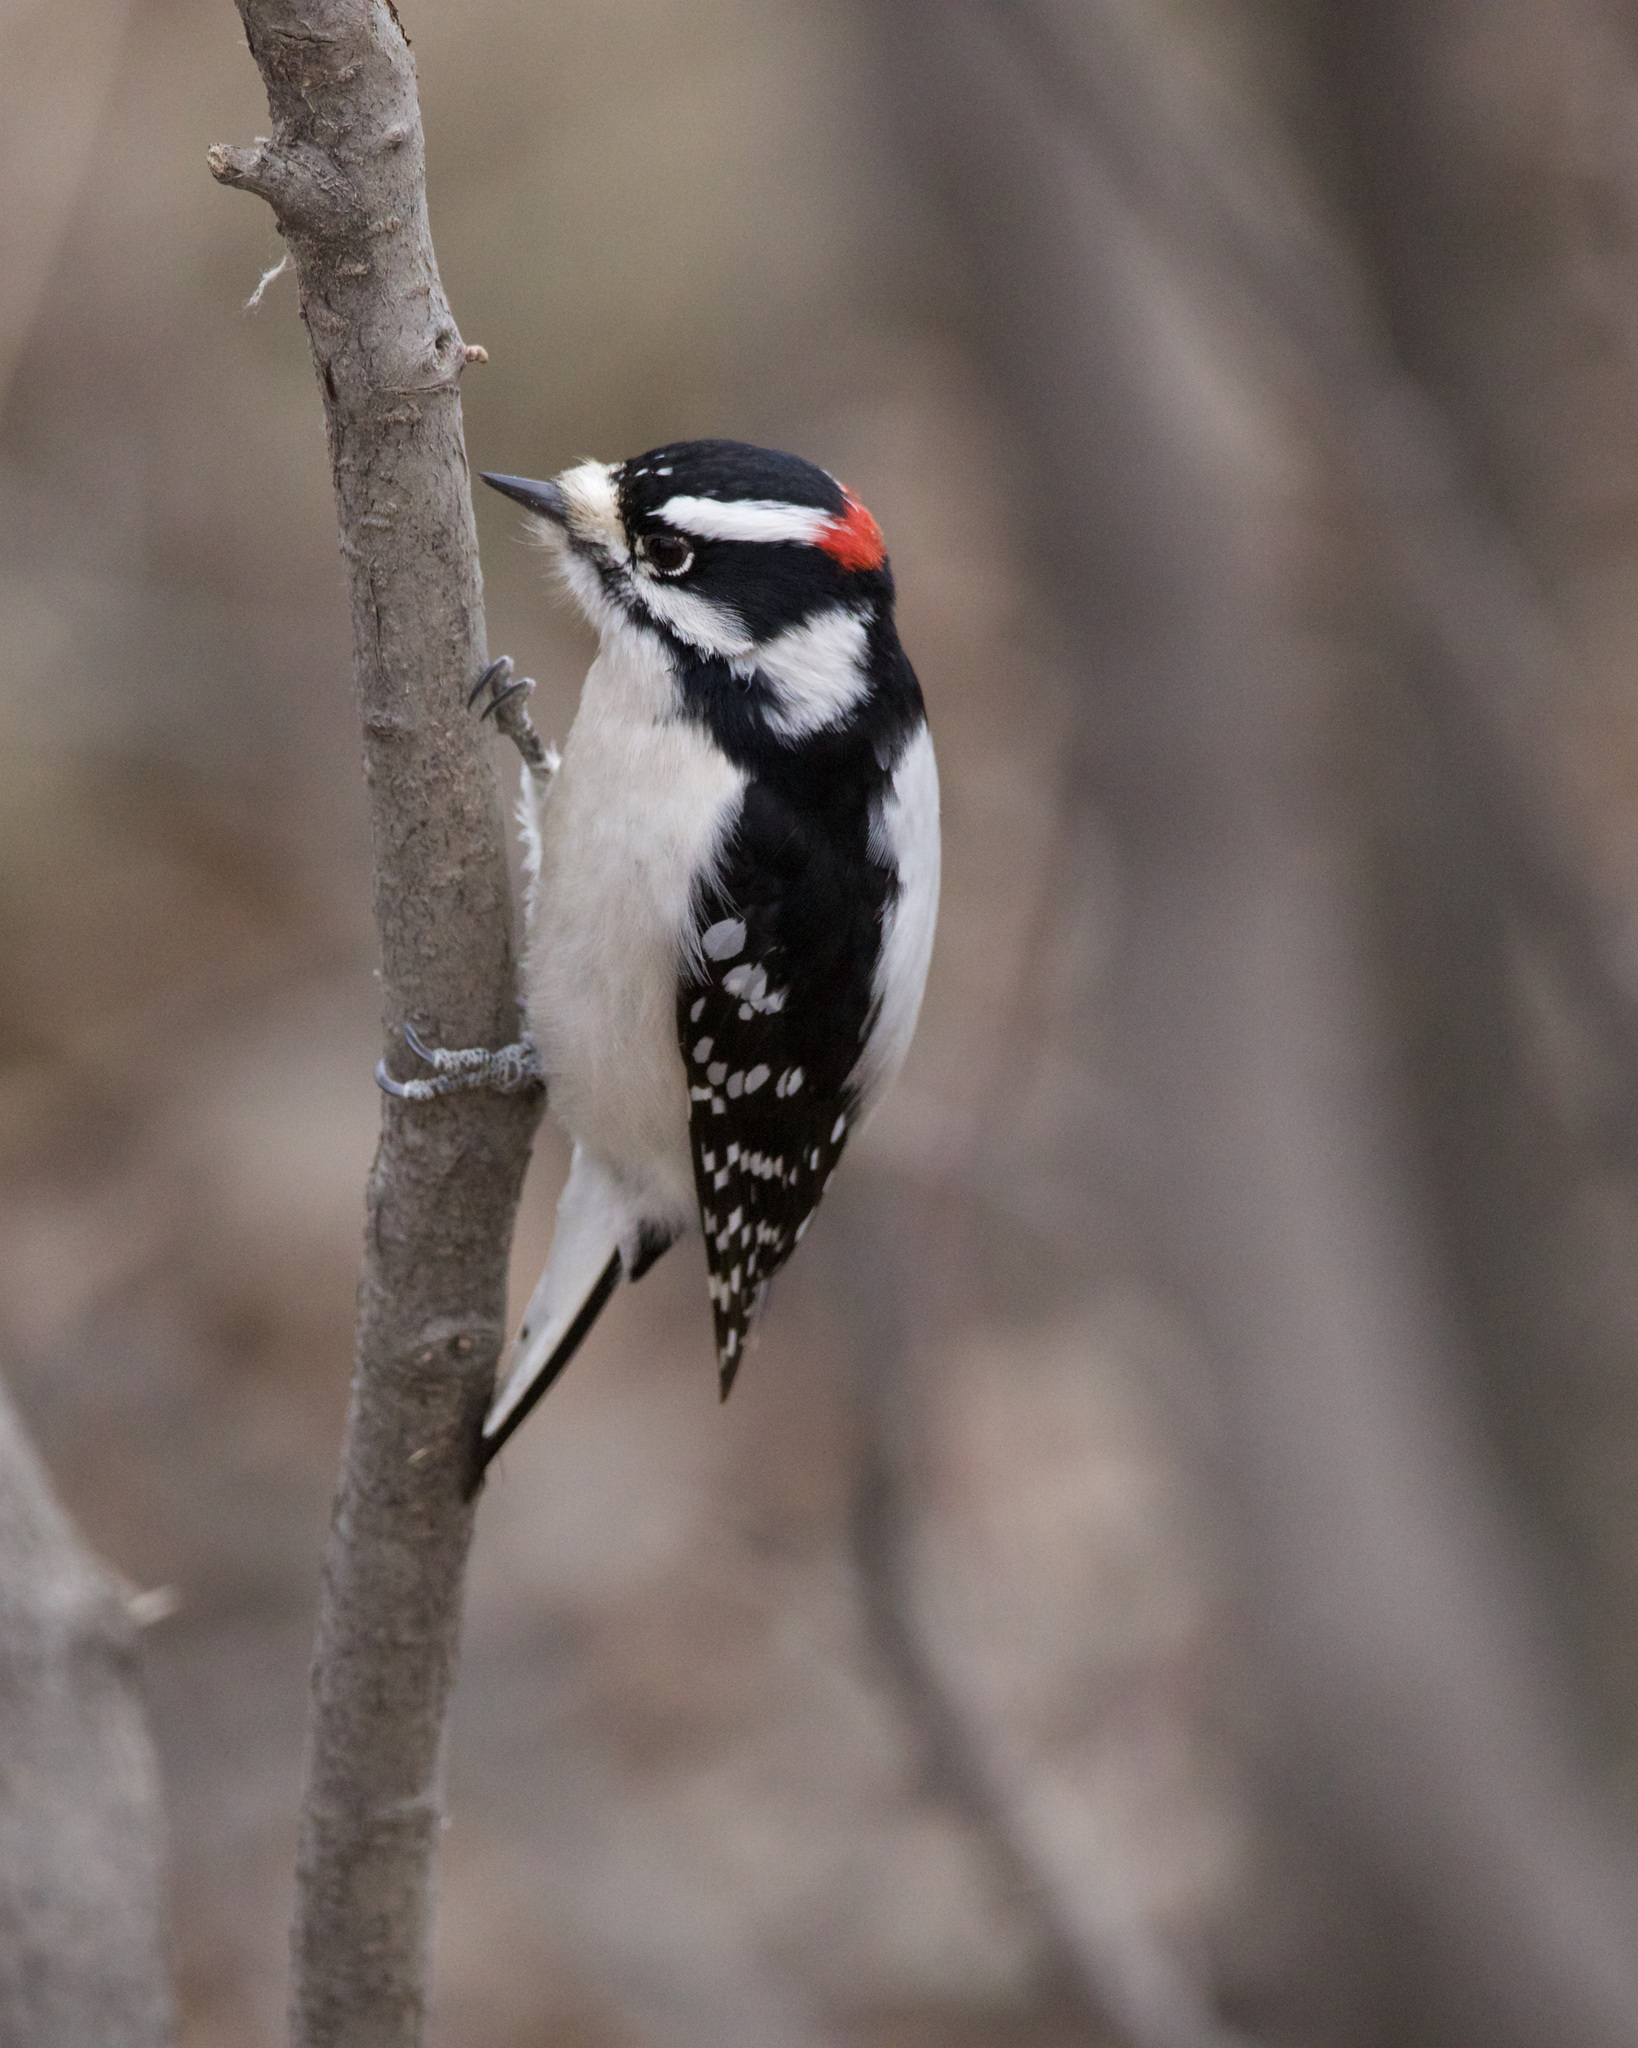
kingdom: Animalia
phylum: Chordata
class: Aves
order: Piciformes
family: Picidae
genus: Dryobates
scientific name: Dryobates pubescens
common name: Downy woodpecker
